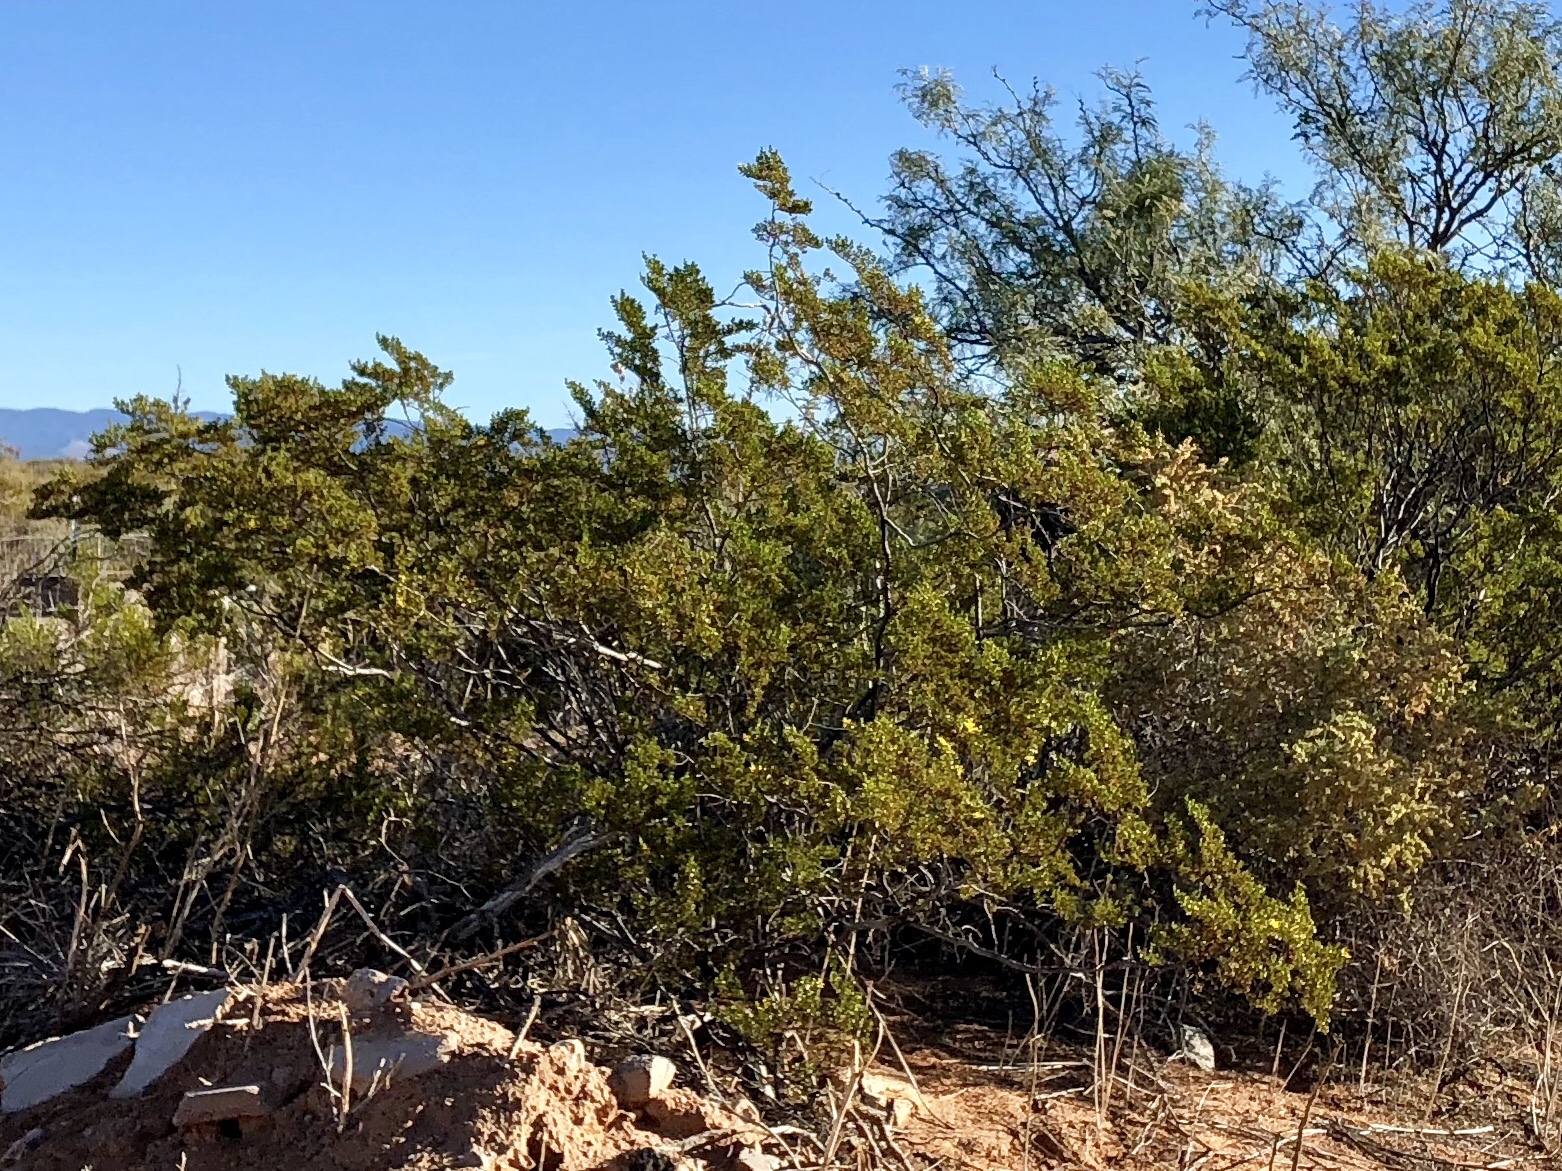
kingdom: Plantae
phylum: Tracheophyta
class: Magnoliopsida
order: Zygophyllales
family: Zygophyllaceae
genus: Larrea
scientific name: Larrea tridentata
